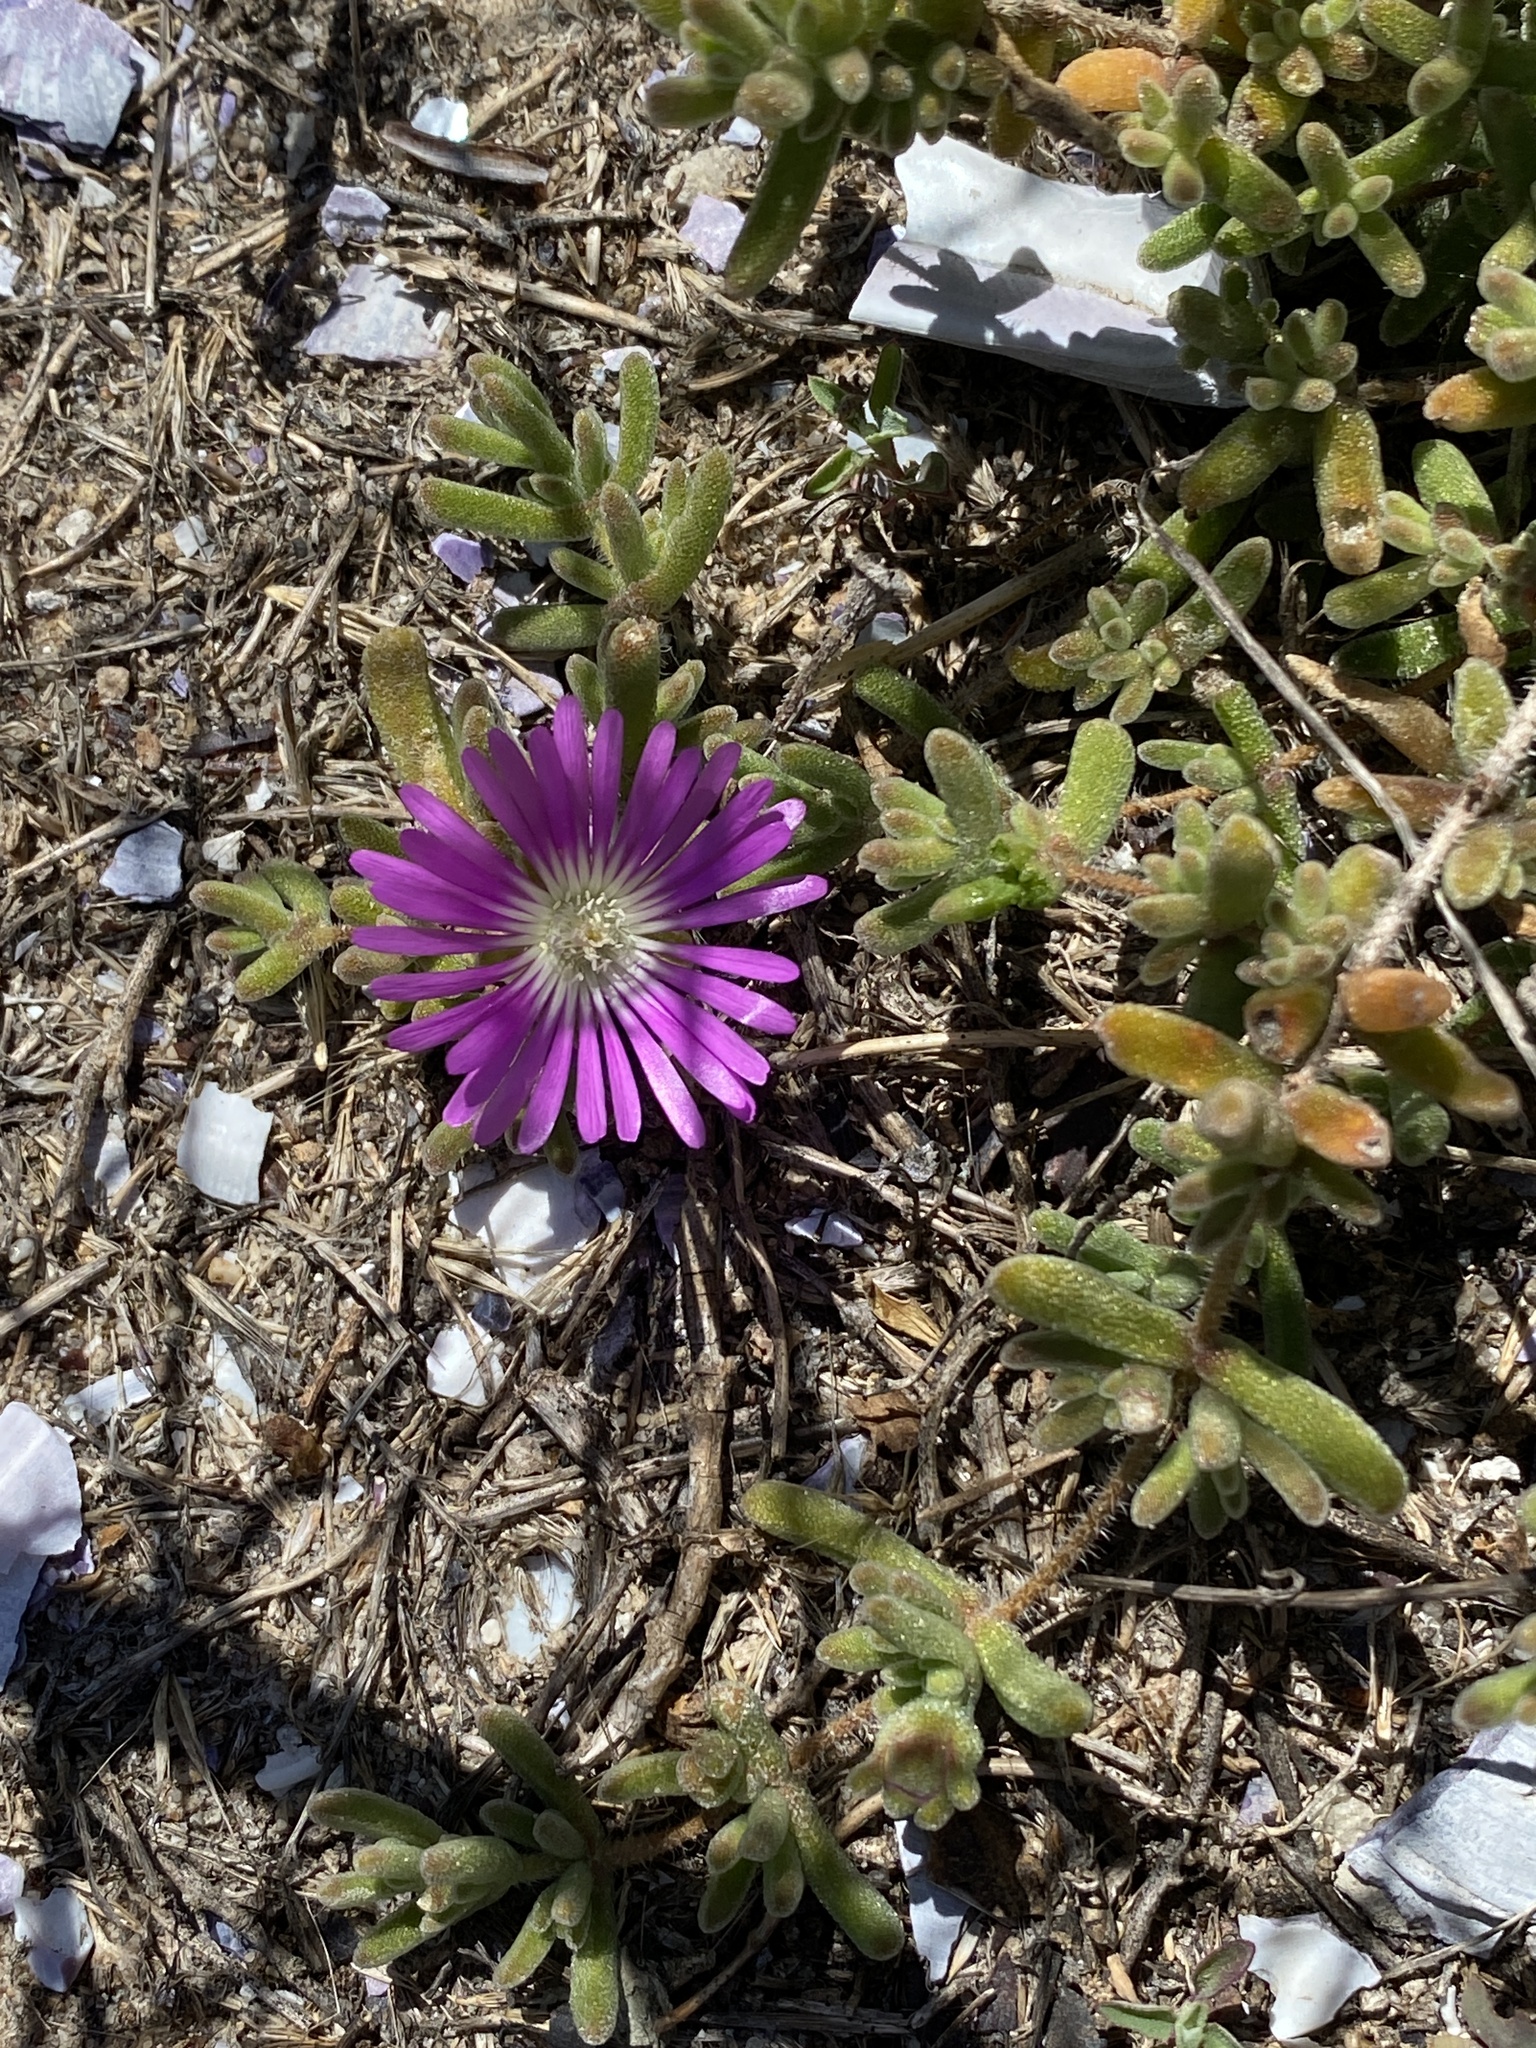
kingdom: Plantae
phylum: Tracheophyta
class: Magnoliopsida
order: Caryophyllales
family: Aizoaceae
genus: Drosanthemum
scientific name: Drosanthemum floribundum
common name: Pale dewplant
